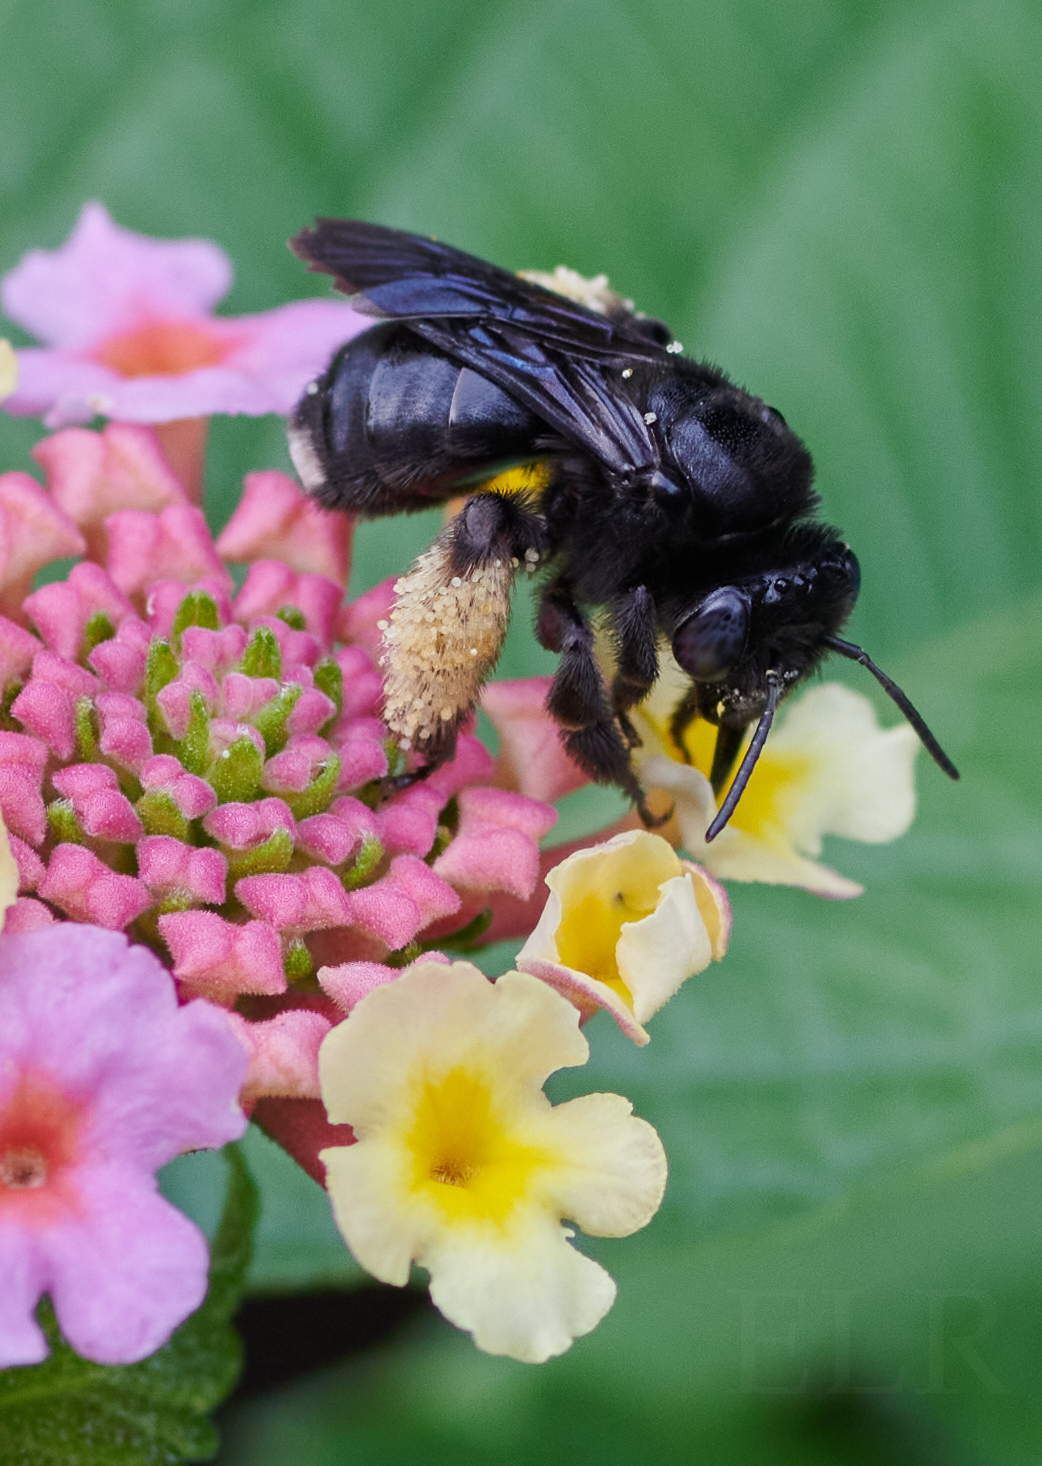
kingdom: Animalia
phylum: Arthropoda
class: Insecta
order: Hymenoptera
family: Apidae
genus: Melissodes
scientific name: Melissodes bimaculatus
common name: Two-spotted long-horned bee
